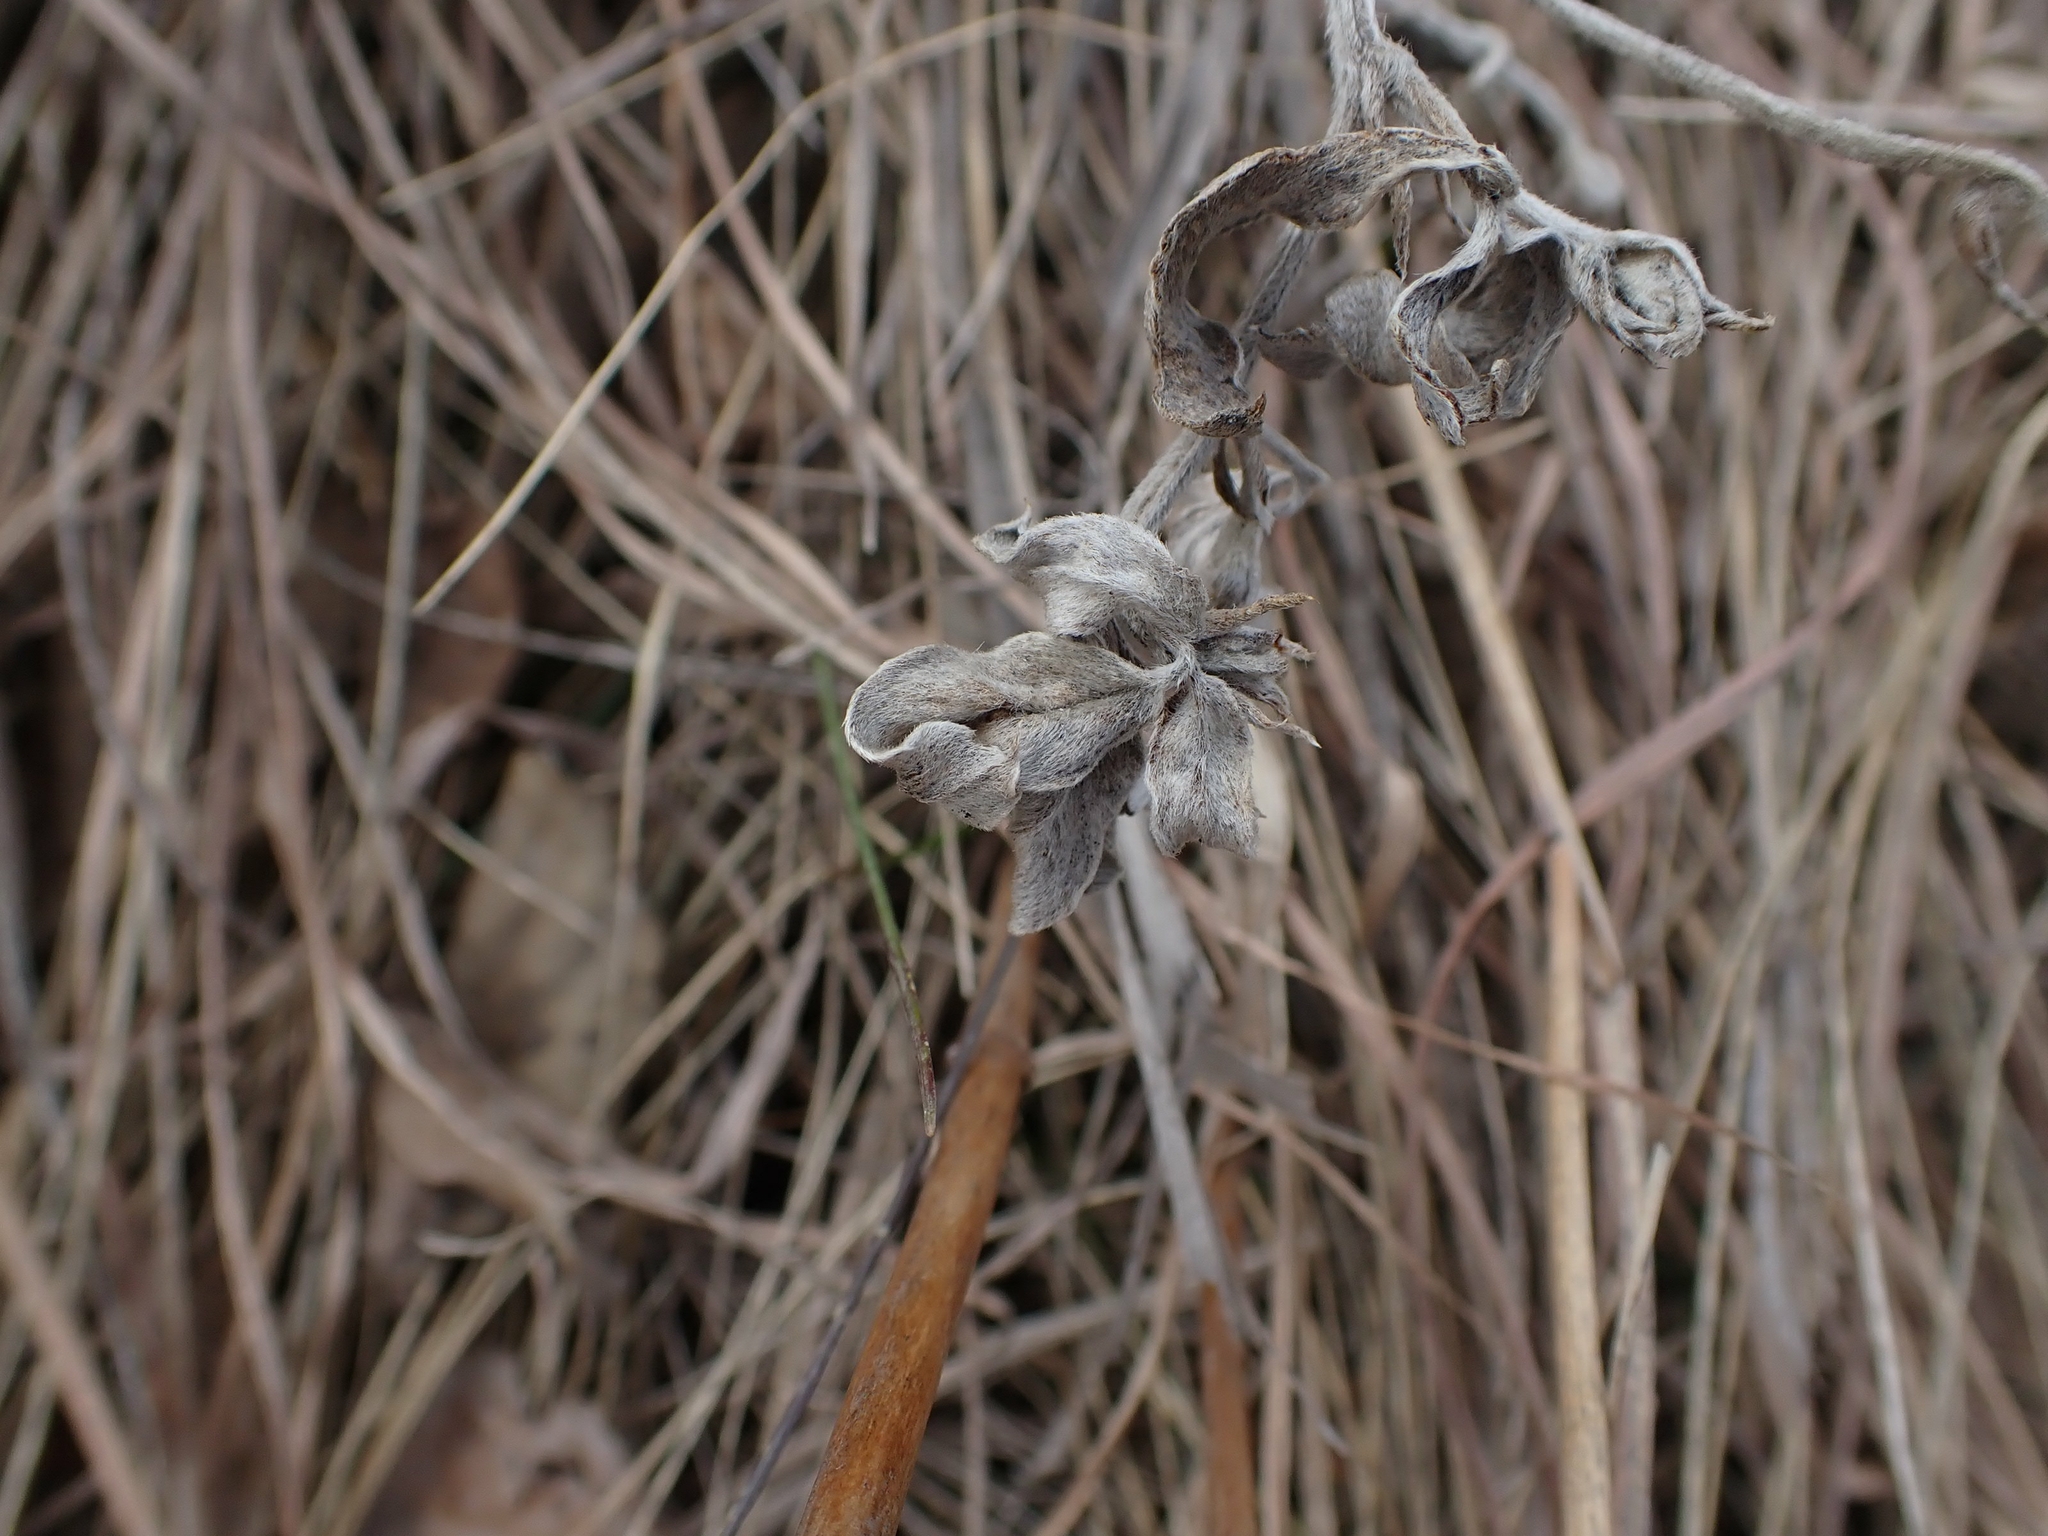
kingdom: Plantae
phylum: Tracheophyta
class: Magnoliopsida
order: Fabales
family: Fabaceae
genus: Pediomelum
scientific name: Pediomelum argophyllum
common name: Silver-leaved indian breadroot
